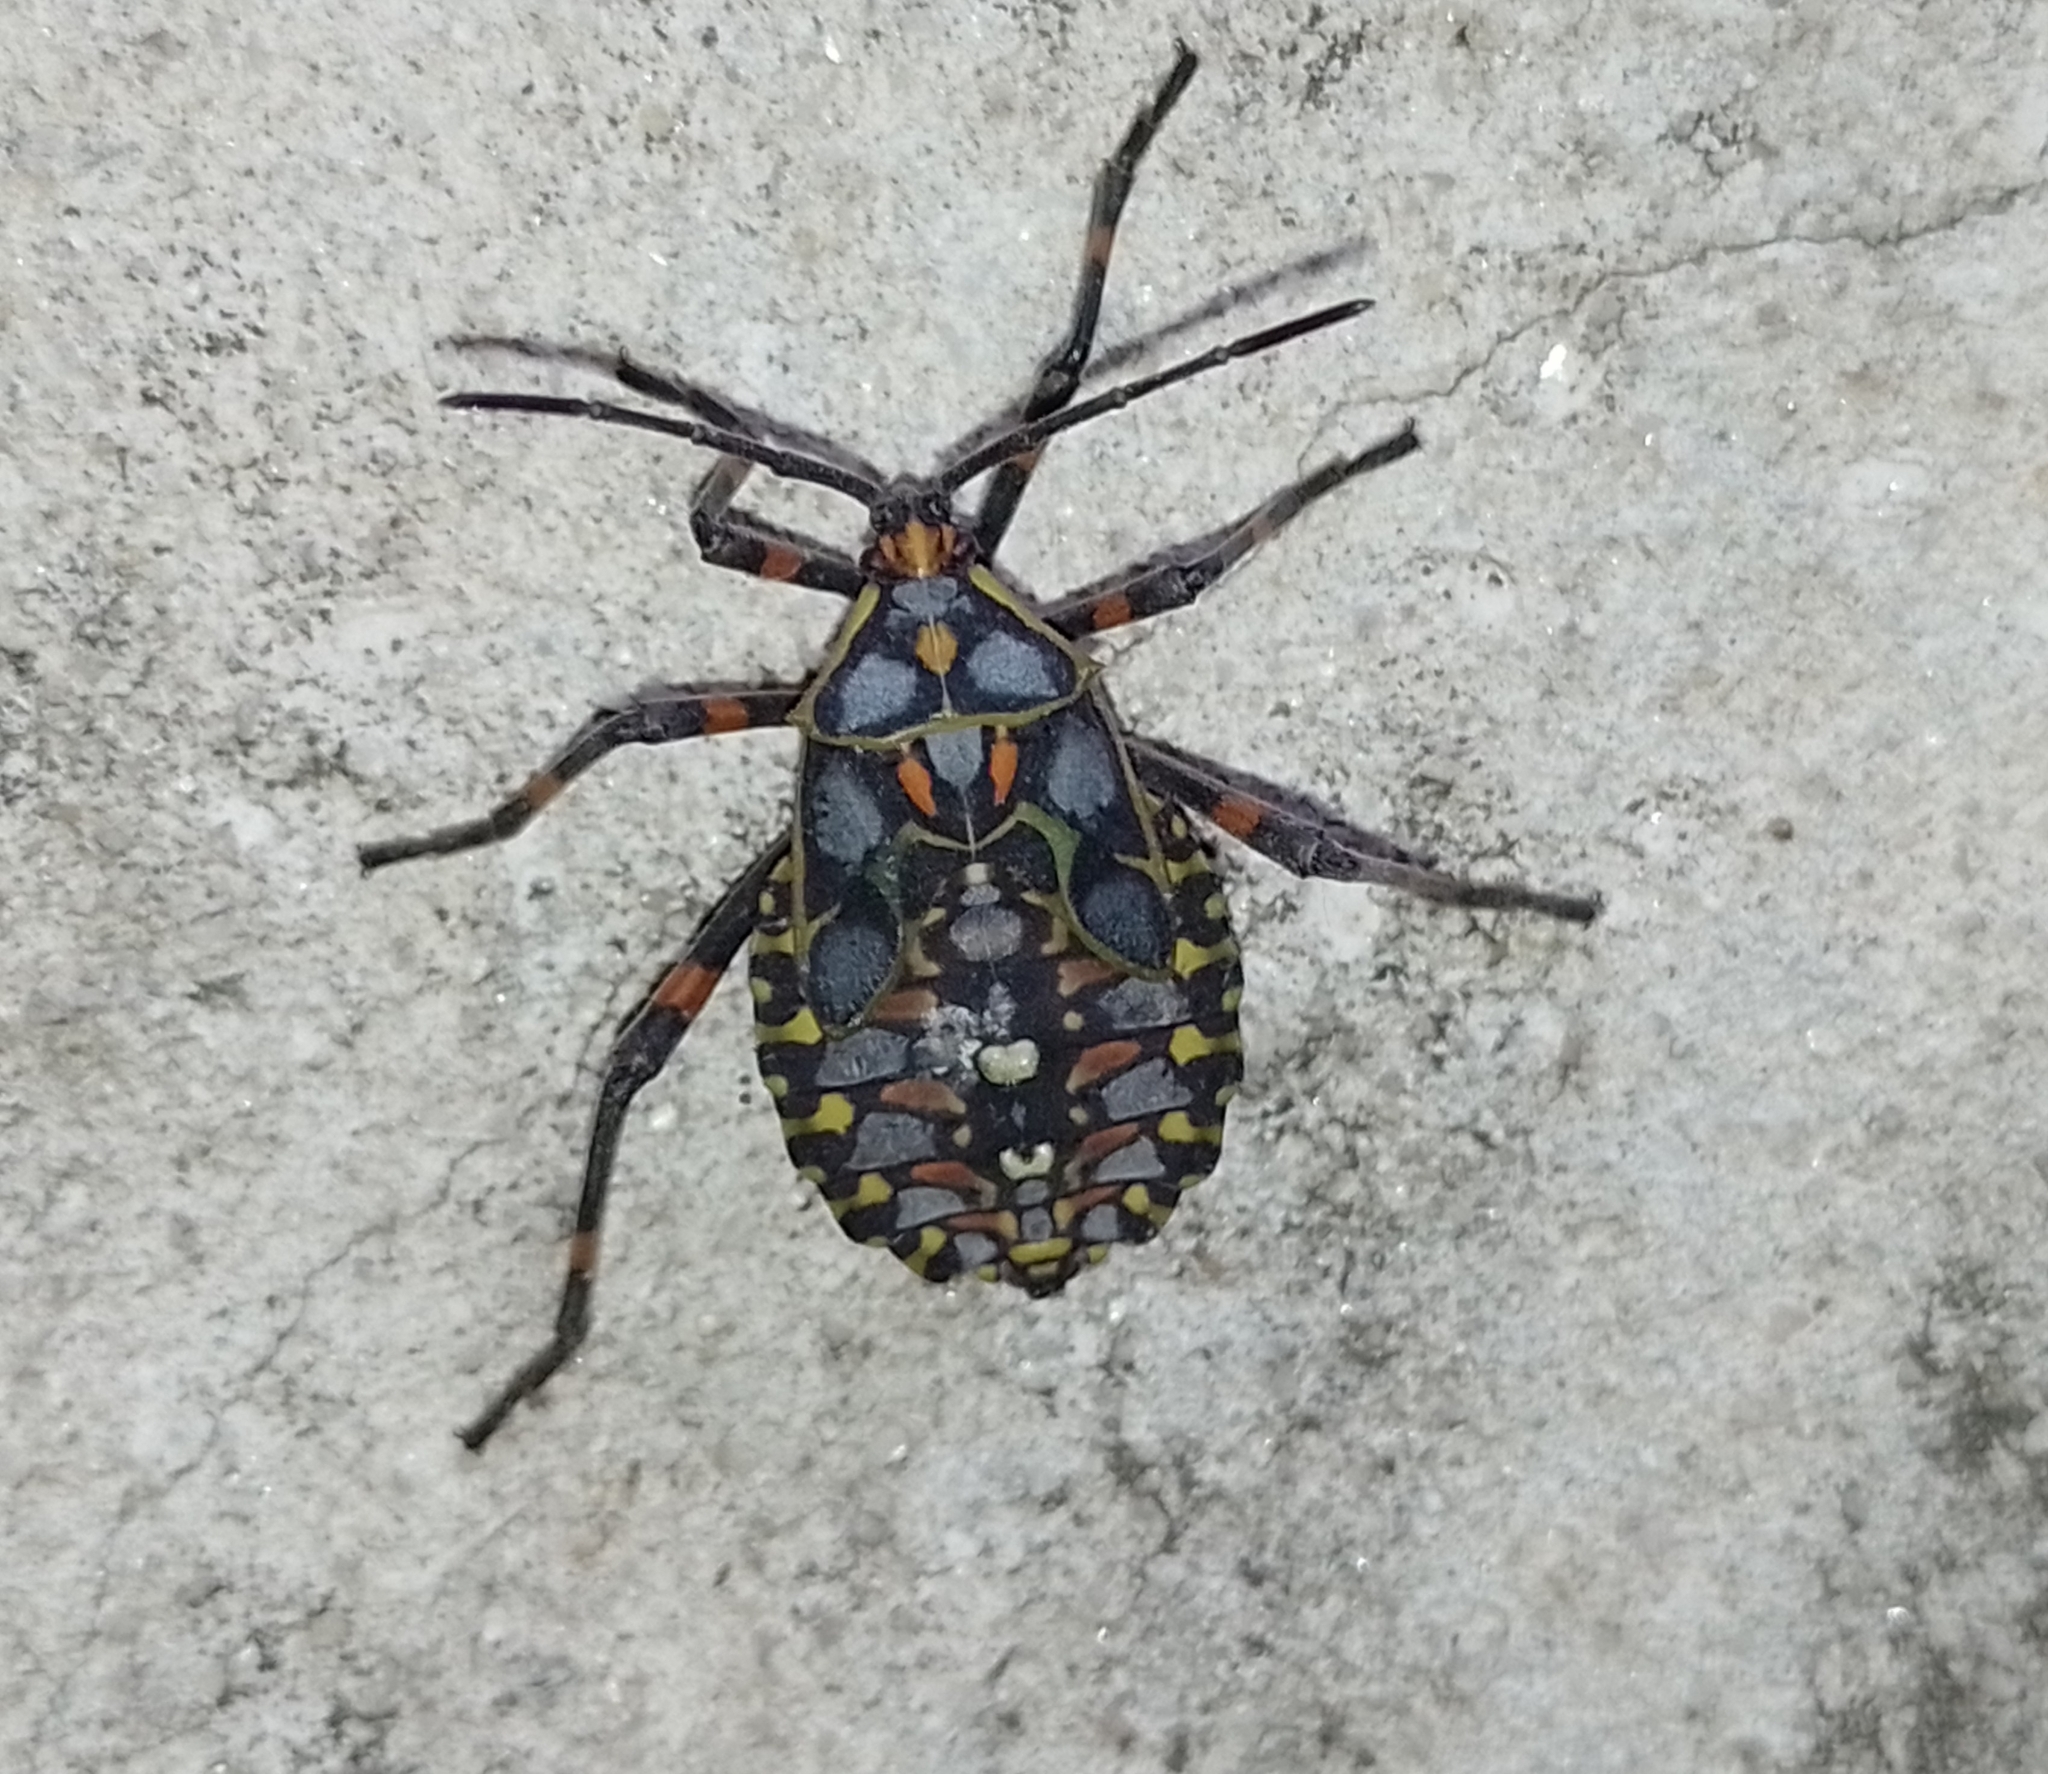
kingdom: Animalia
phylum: Arthropoda
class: Insecta
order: Hemiptera
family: Coreidae
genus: Pachylis
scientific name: Pachylis argentinus
